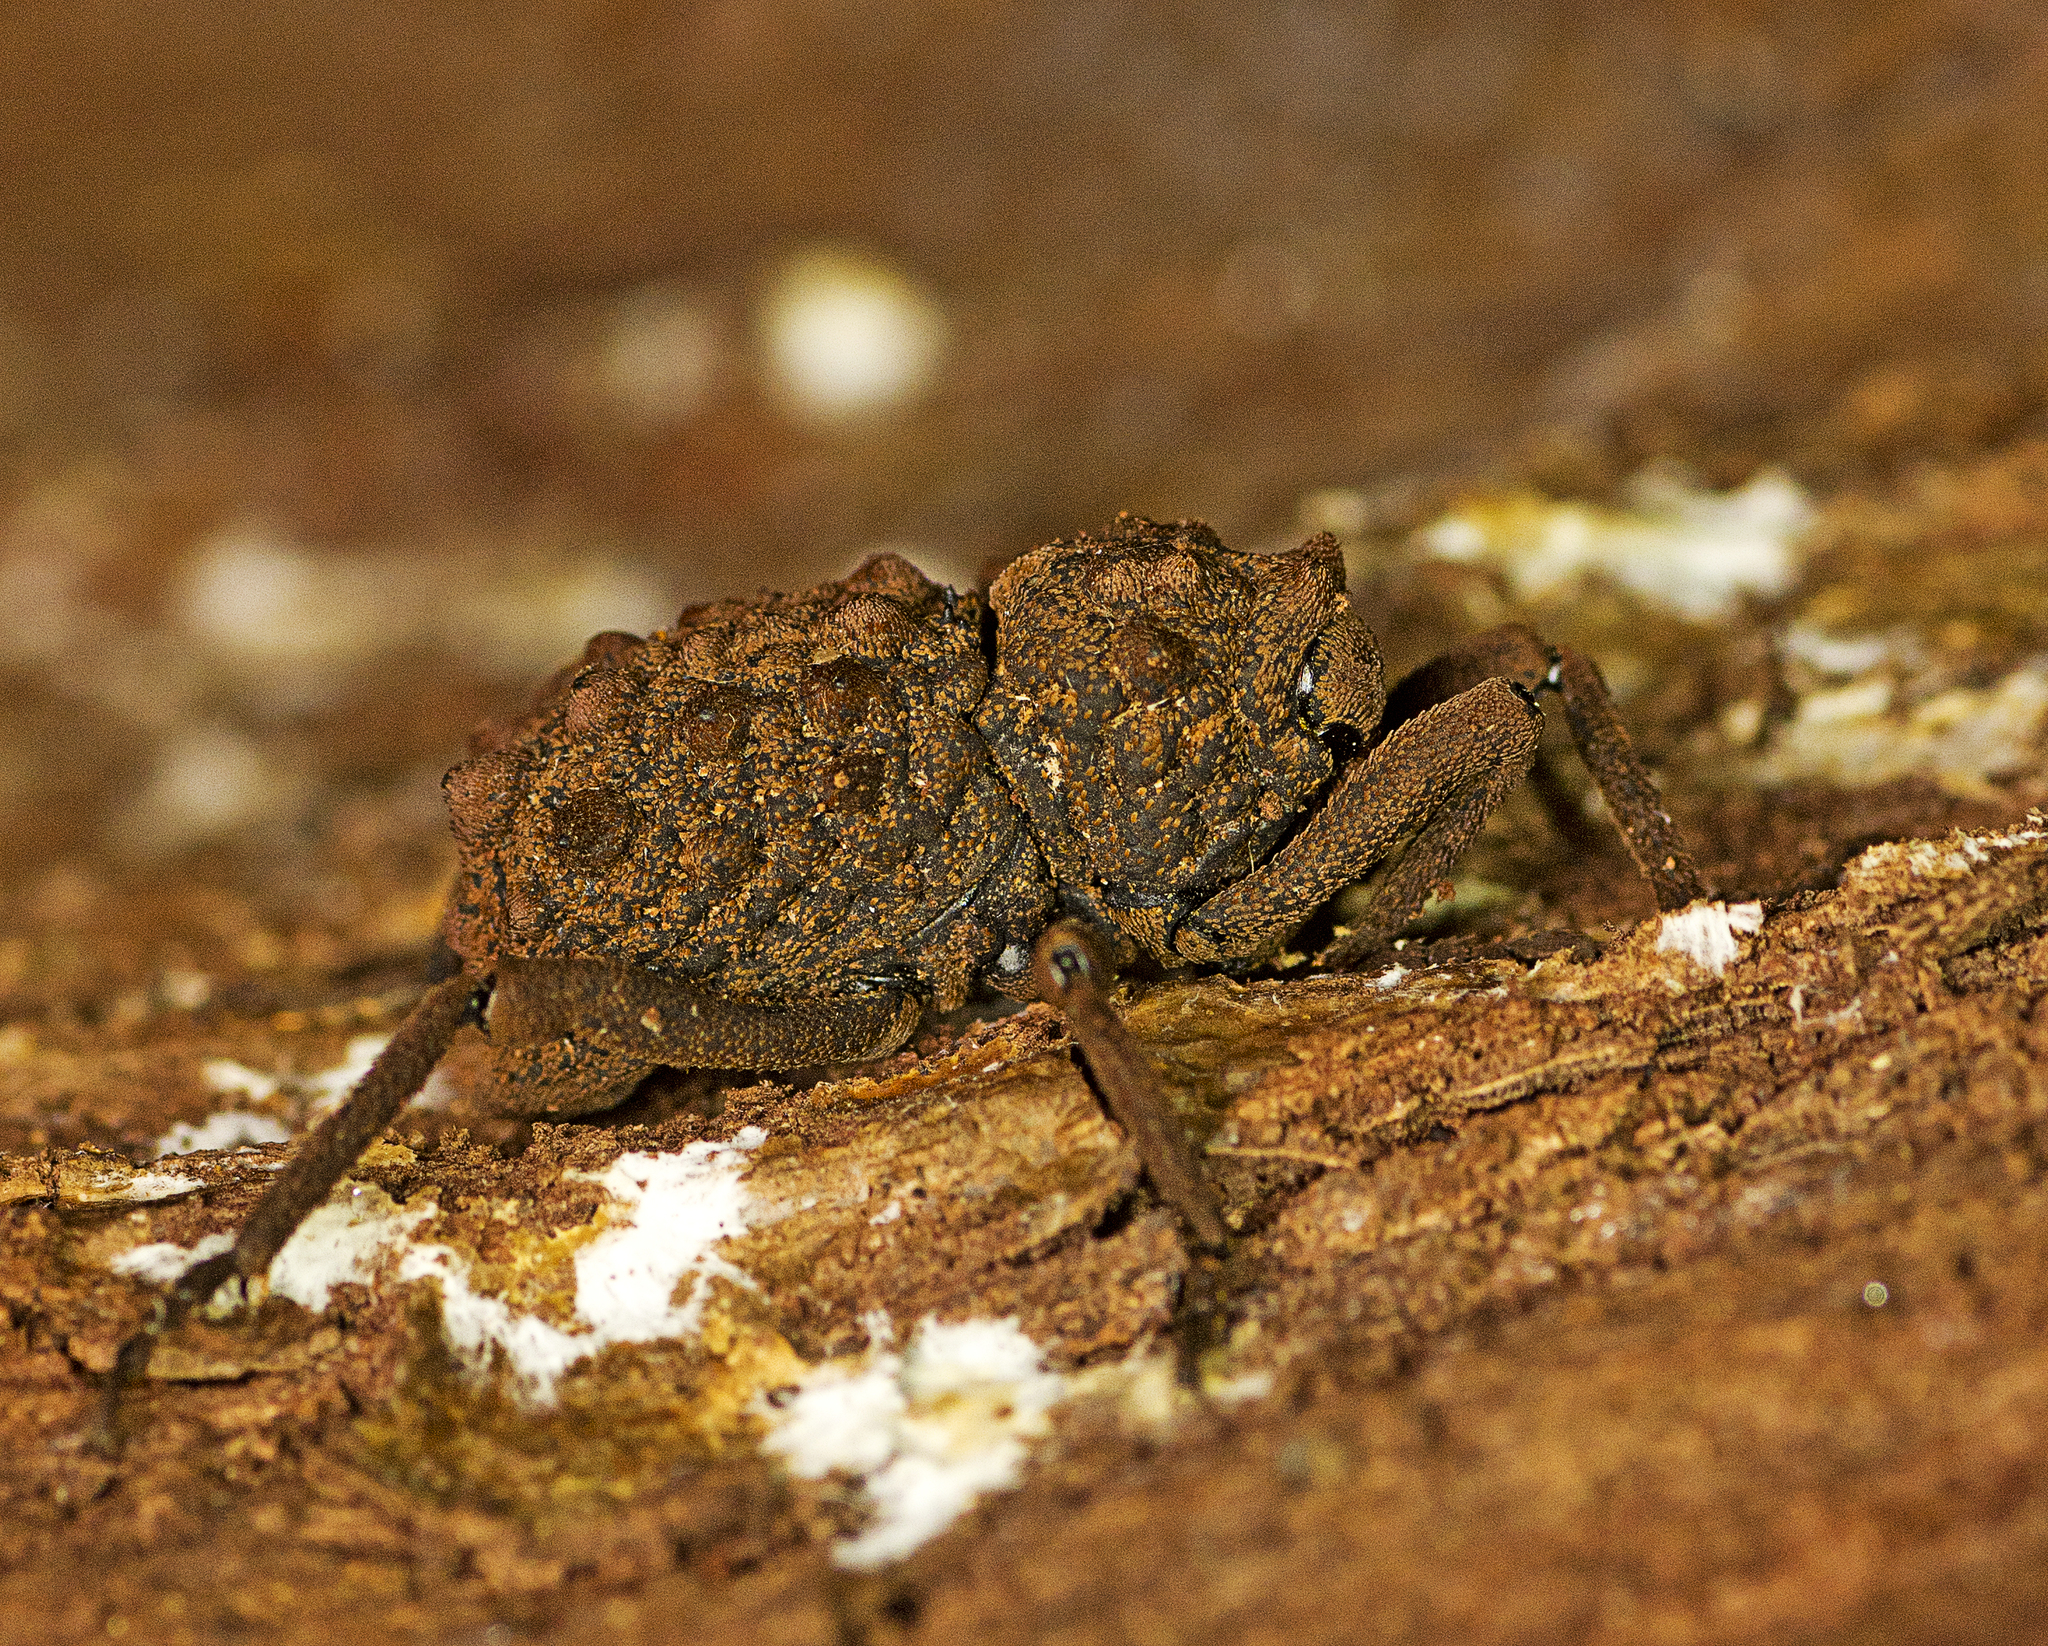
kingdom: Animalia
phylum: Arthropoda
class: Insecta
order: Coleoptera
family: Curculionidae
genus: Mormosintes
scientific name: Mormosintes rubus
